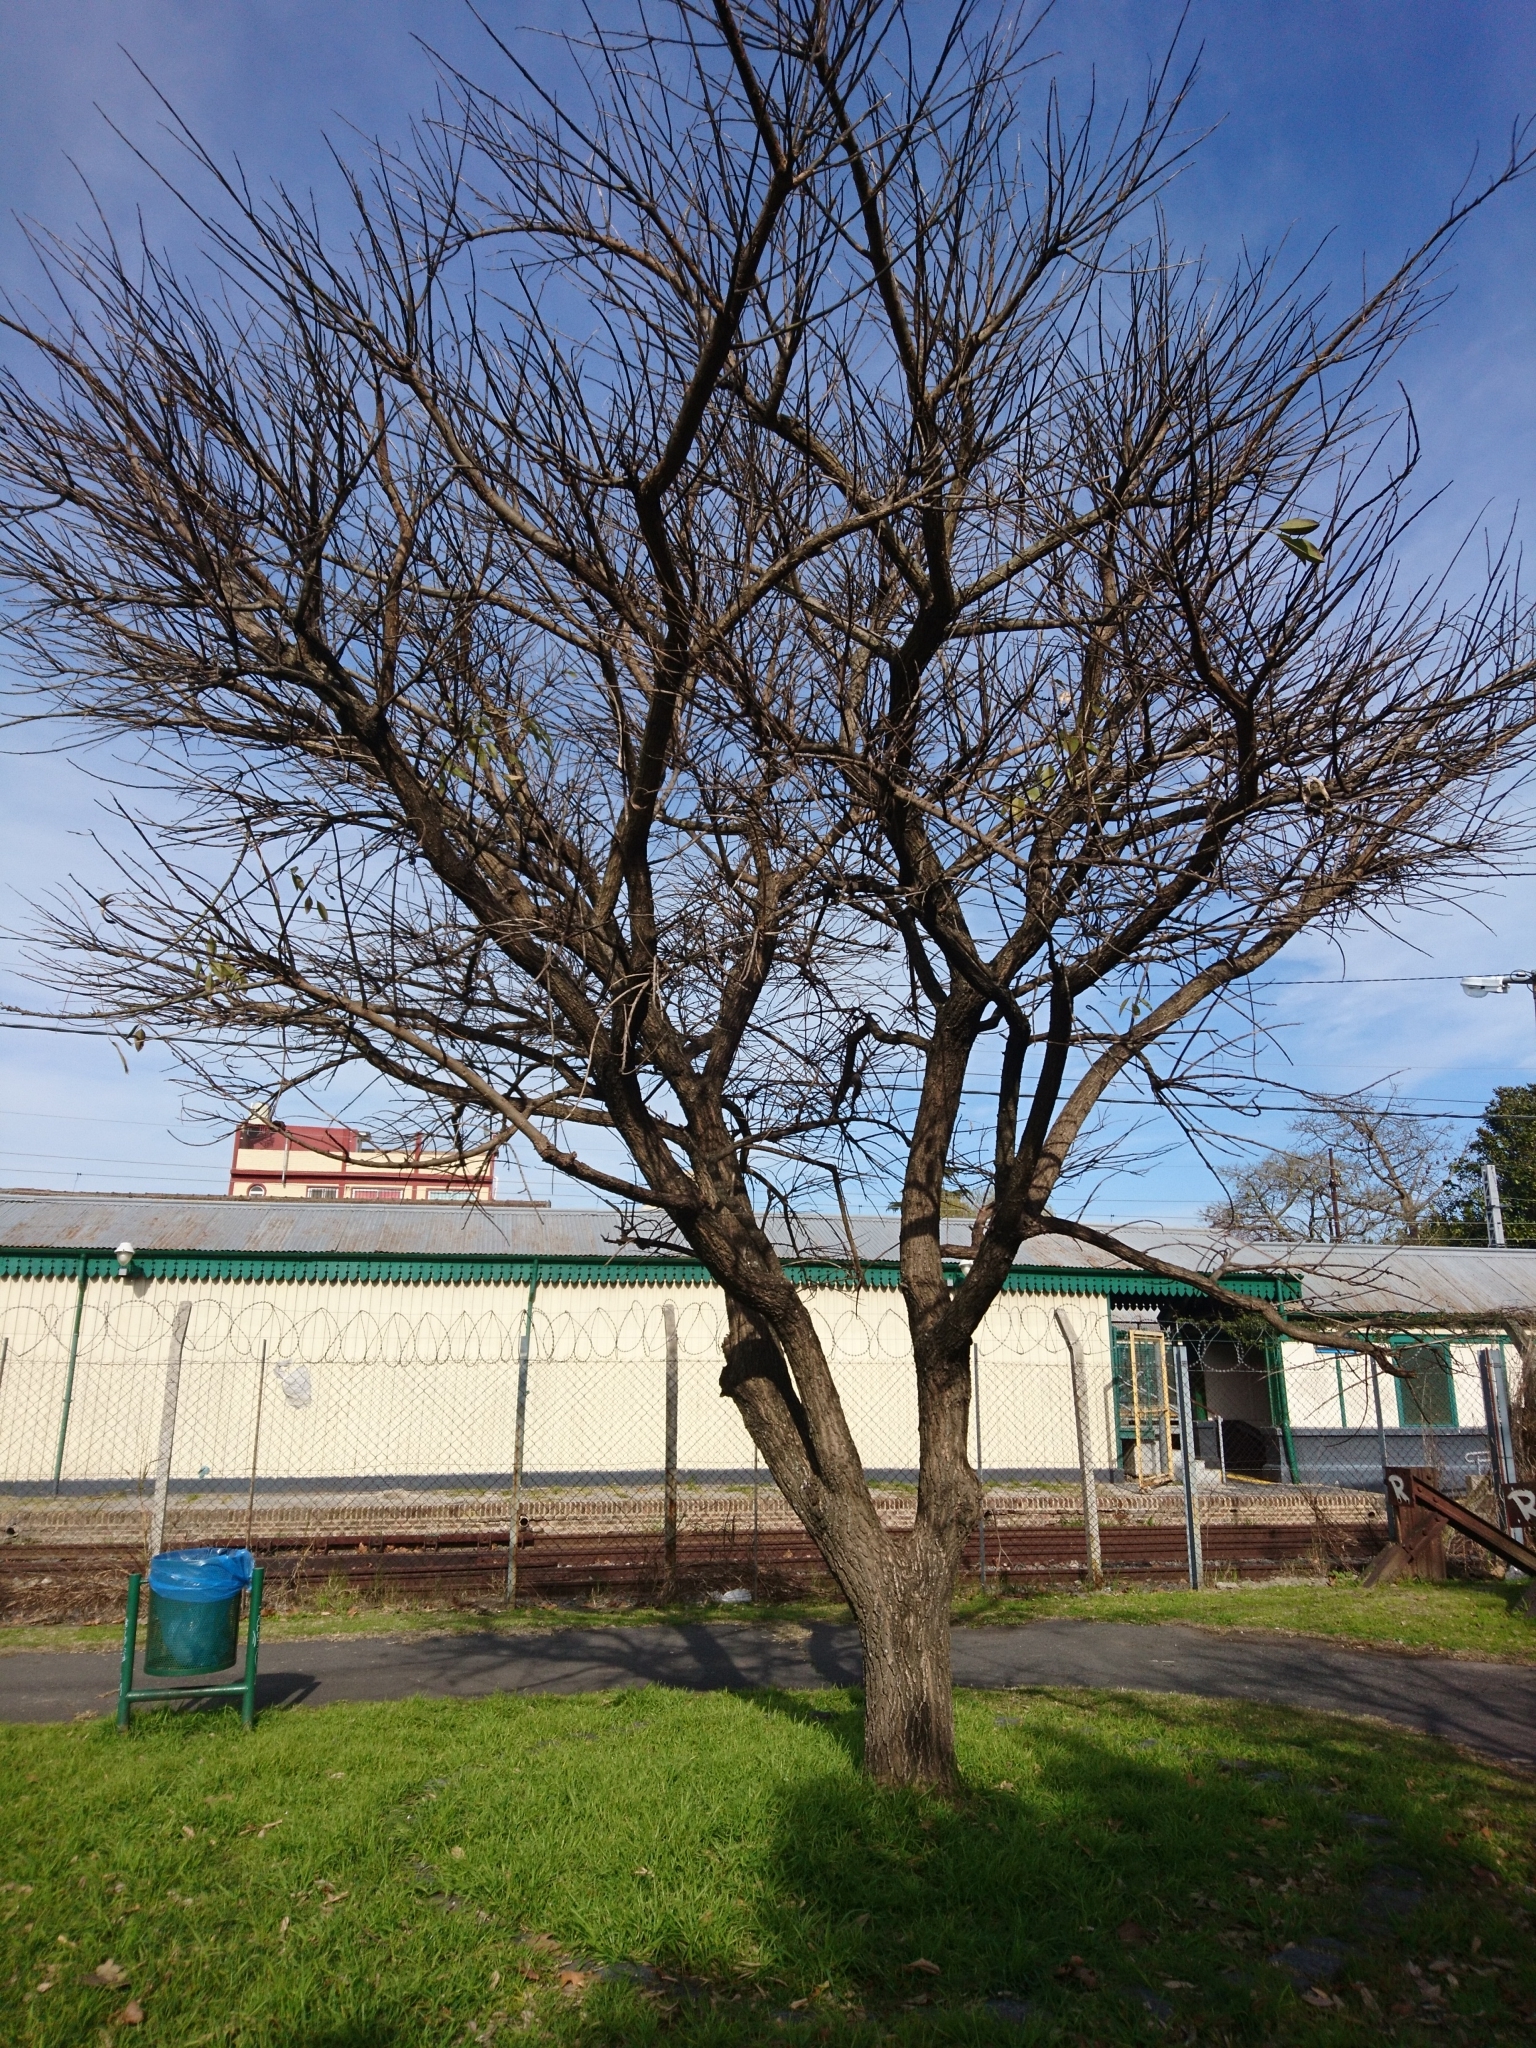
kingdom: Plantae
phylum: Tracheophyta
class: Magnoliopsida
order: Fabales
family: Fabaceae
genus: Erythrina
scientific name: Erythrina crista-galli
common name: Cockspur coral tree
